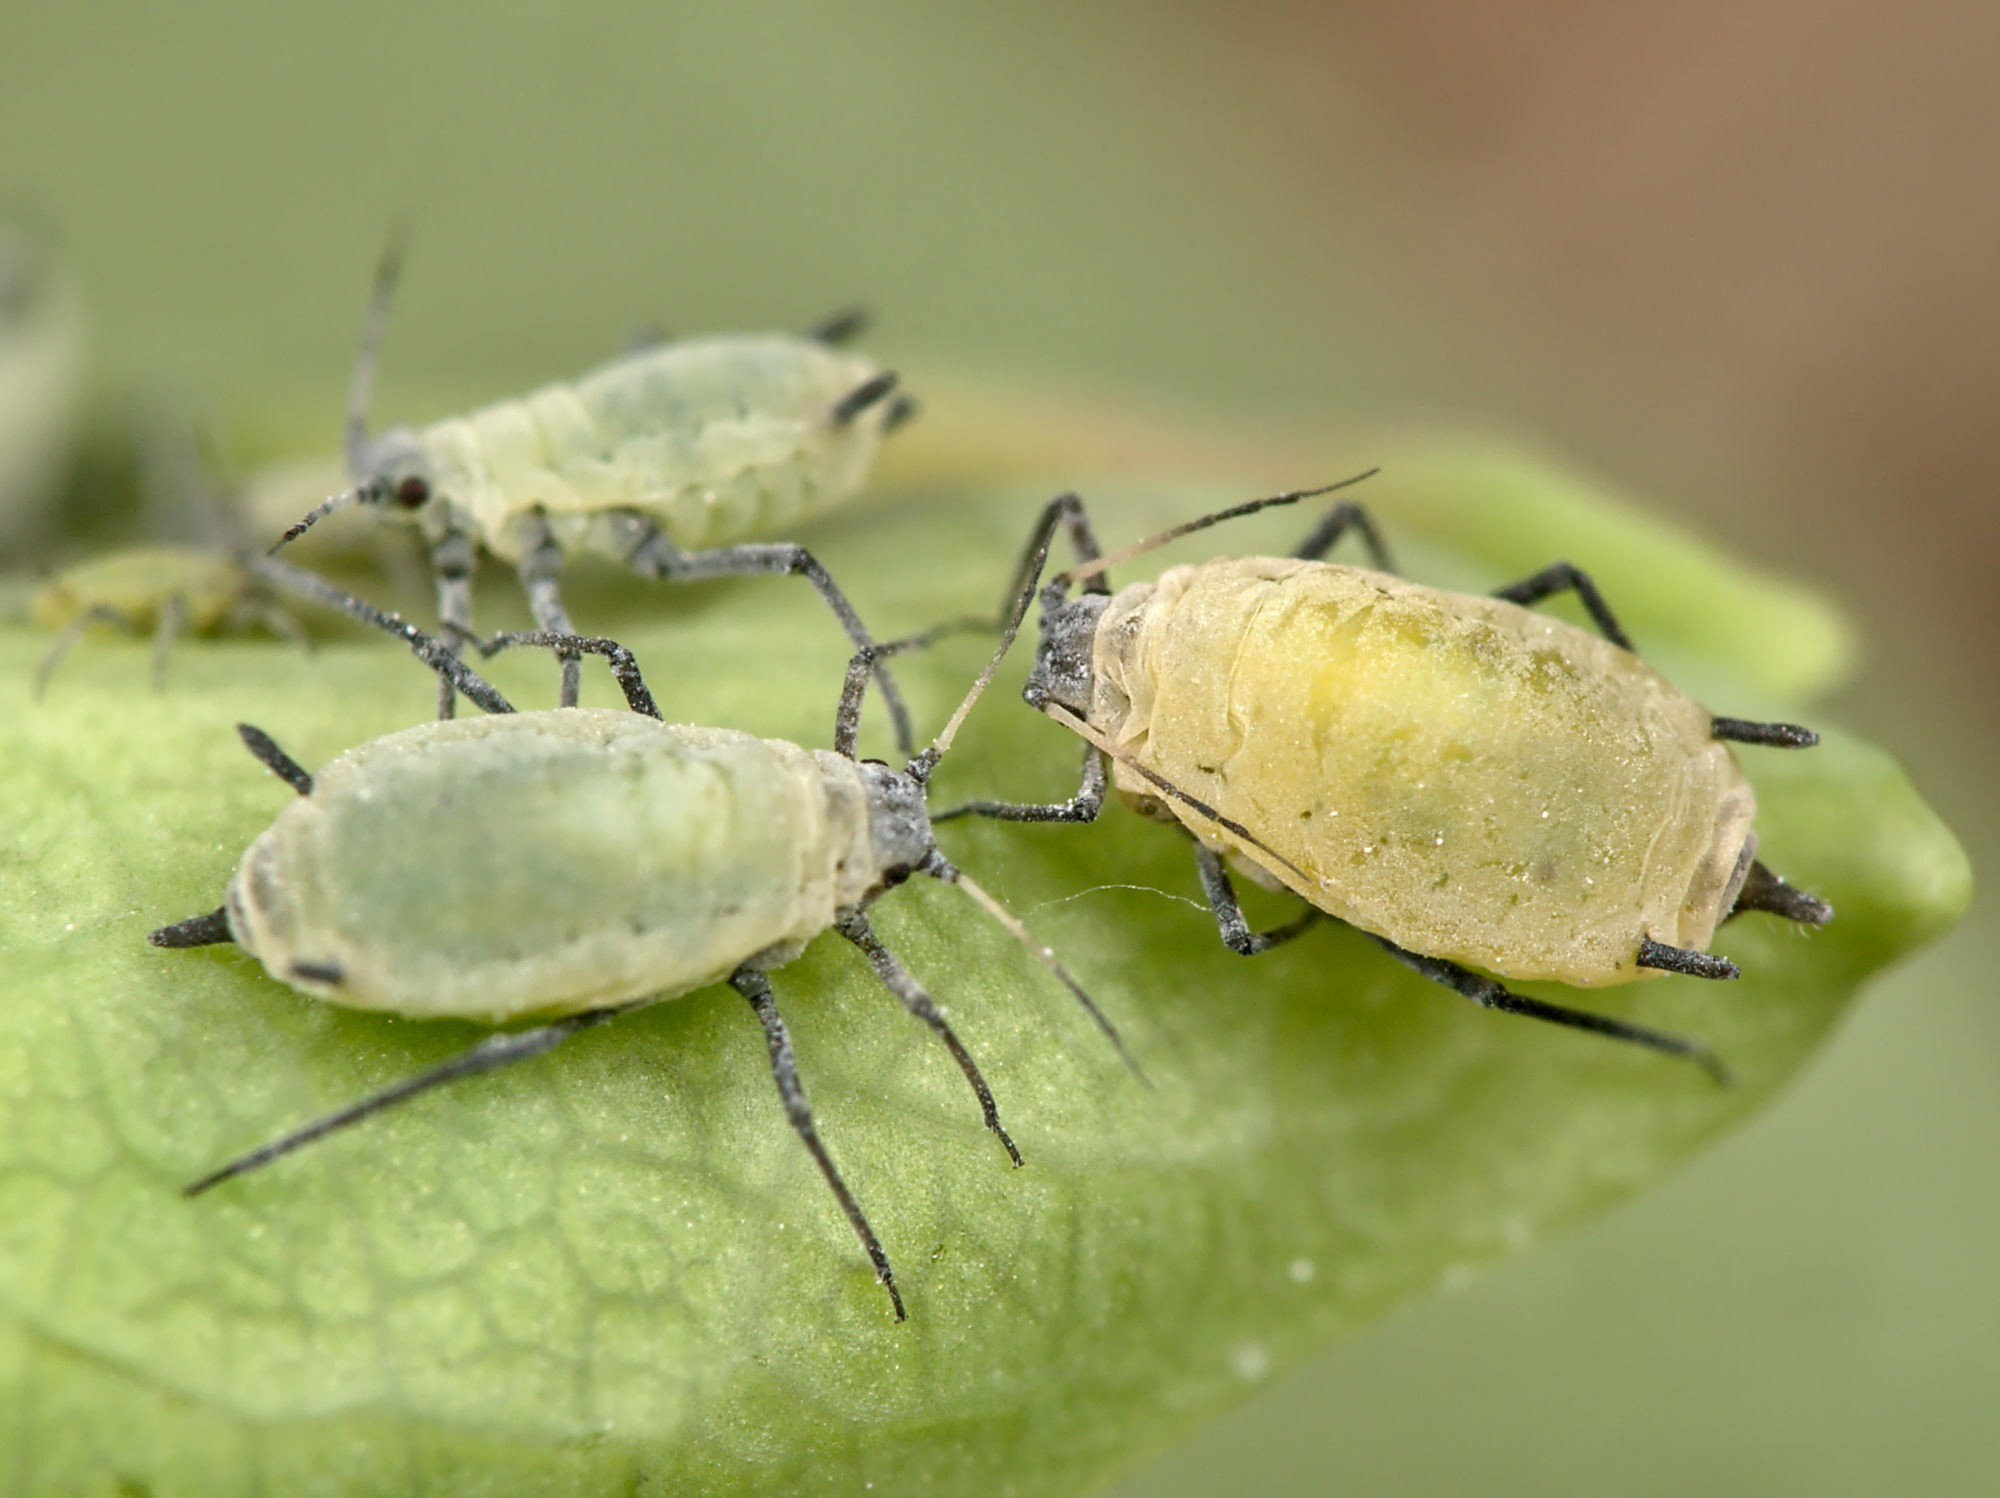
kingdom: Animalia
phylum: Arthropoda
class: Insecta
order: Hemiptera
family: Aphididae
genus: Hyadaphis
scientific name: Hyadaphis passerinii
